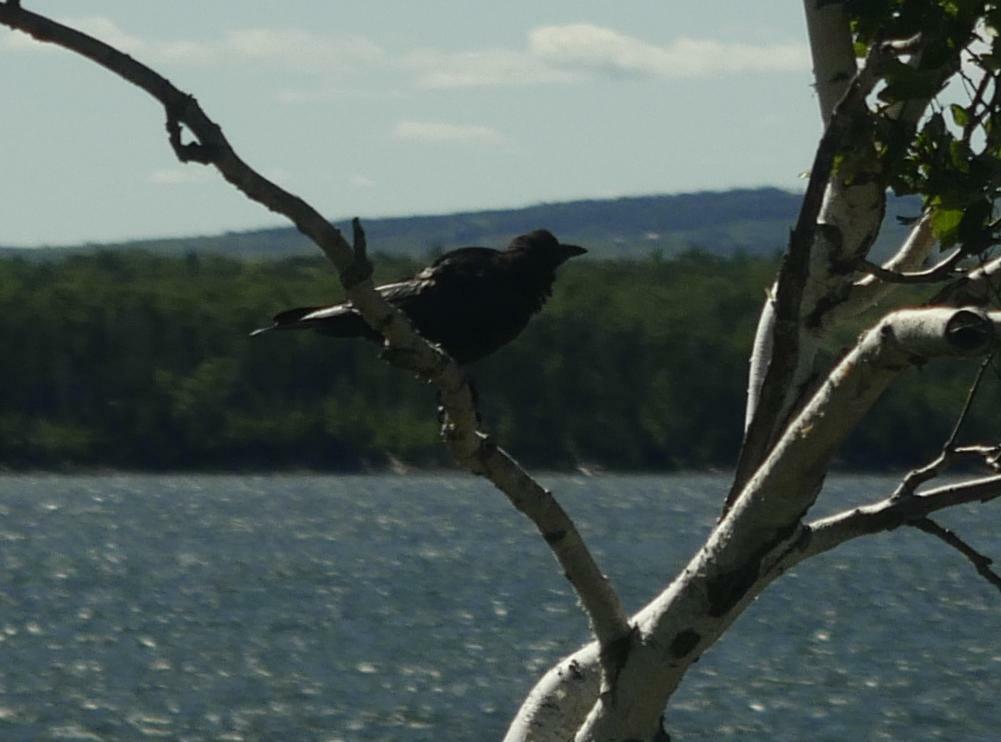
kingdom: Animalia
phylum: Chordata
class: Aves
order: Passeriformes
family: Corvidae
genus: Corvus
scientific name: Corvus brachyrhynchos
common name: American crow
